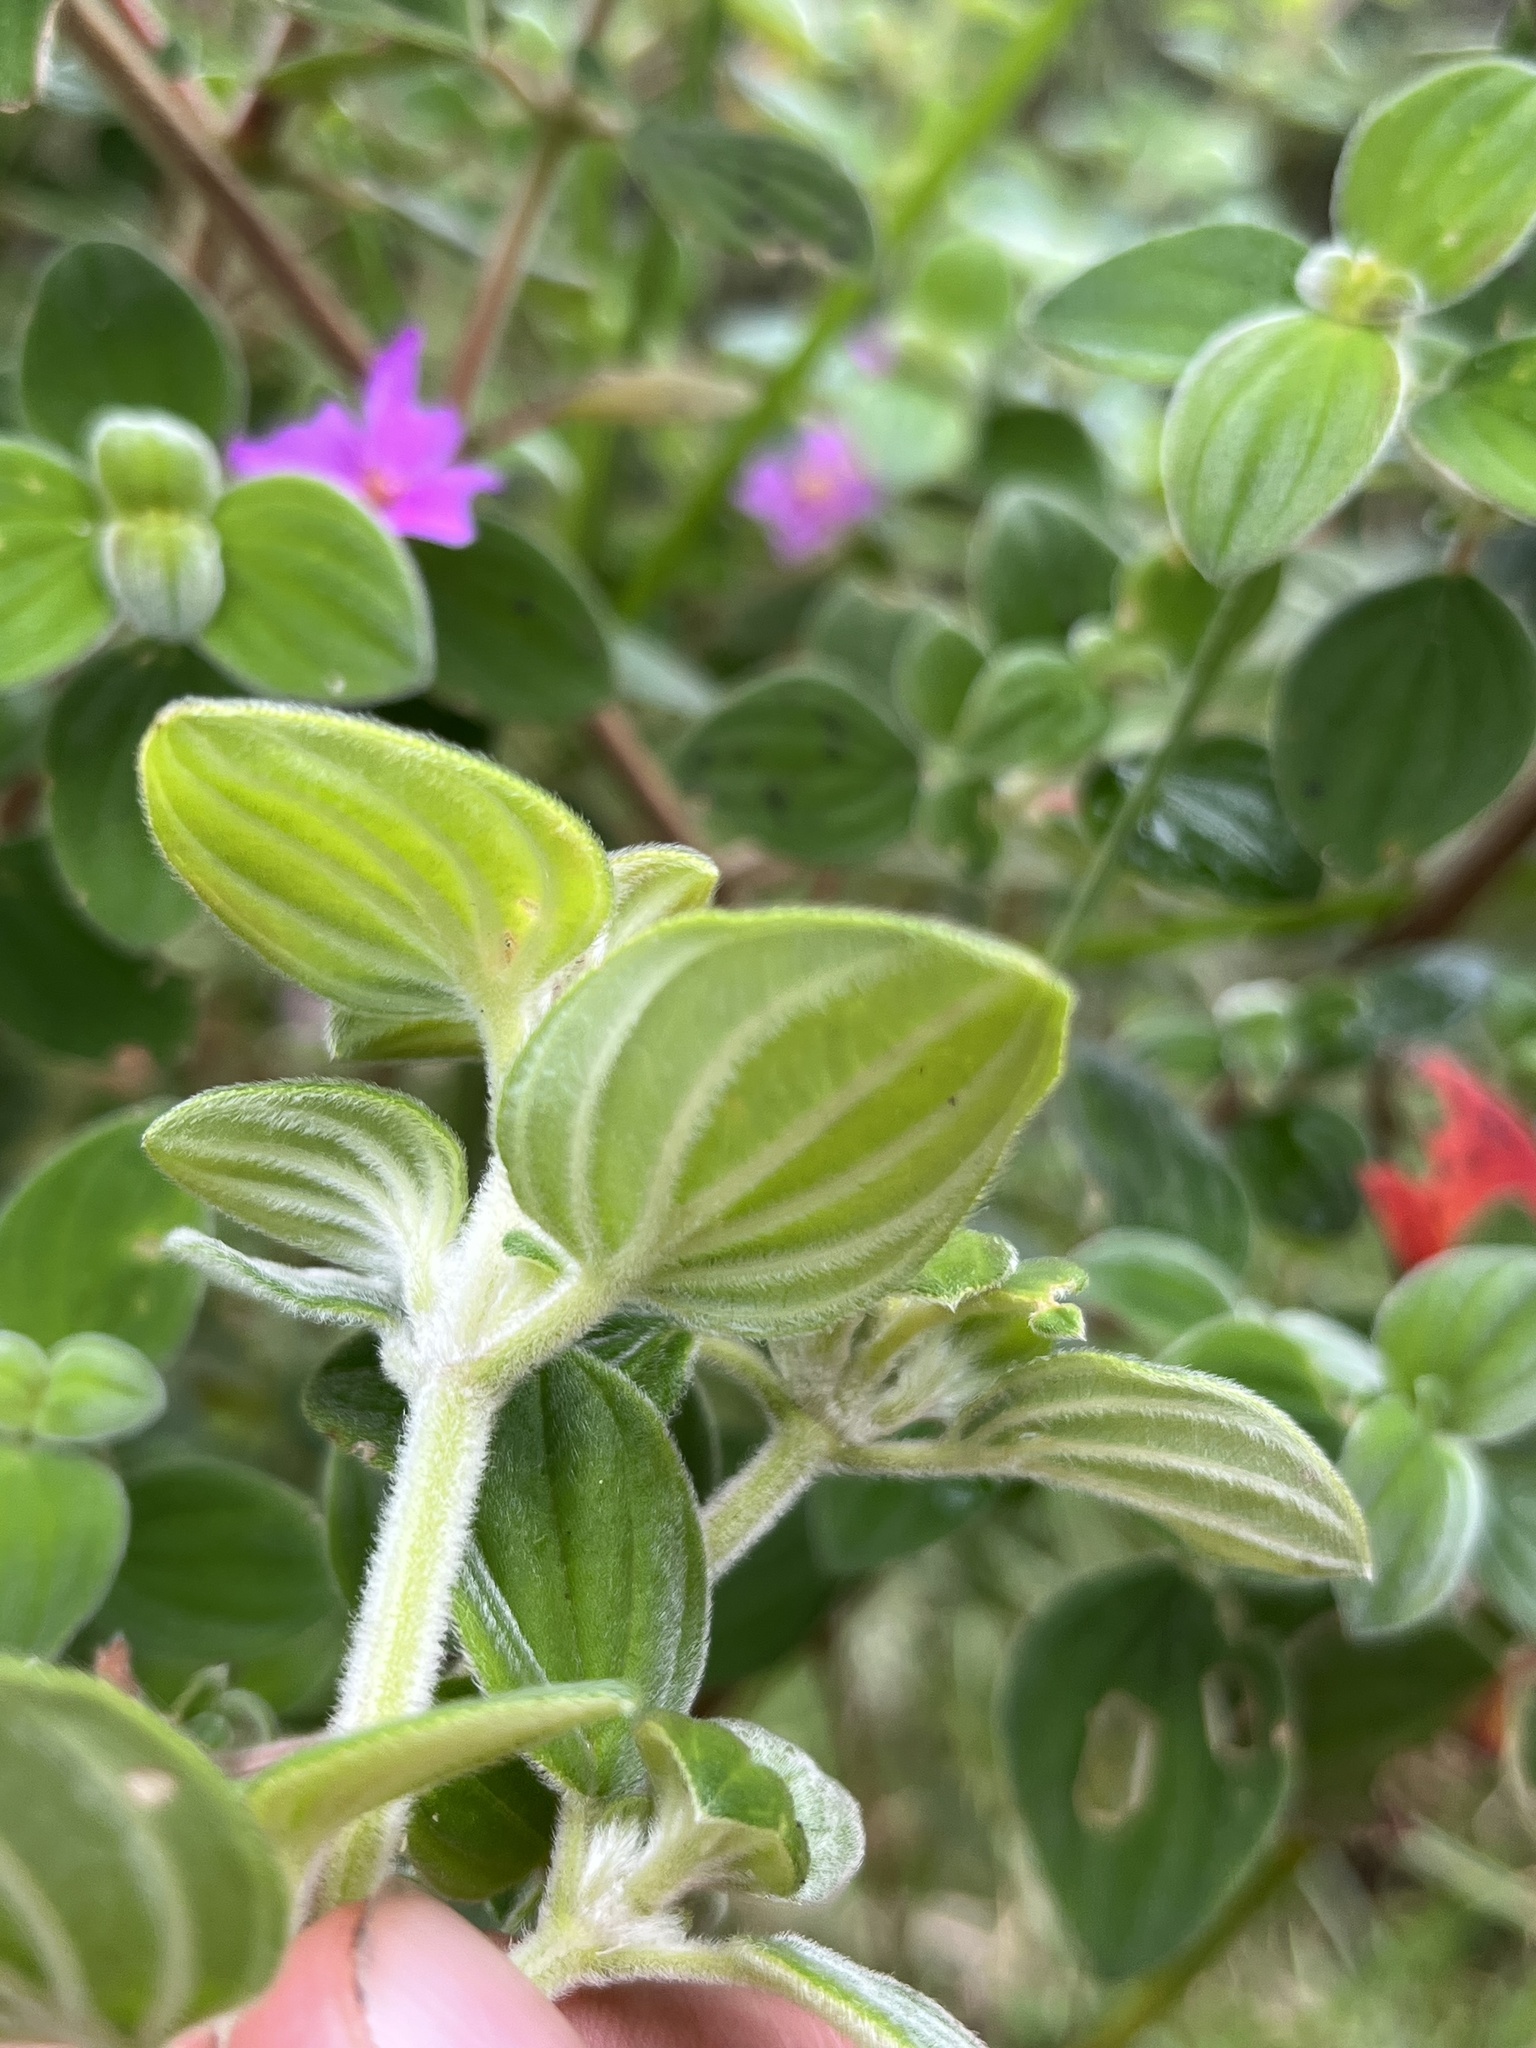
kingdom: Plantae
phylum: Tracheophyta
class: Magnoliopsida
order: Myrtales
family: Melastomataceae
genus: Monochaetum
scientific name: Monochaetum bonplandii
